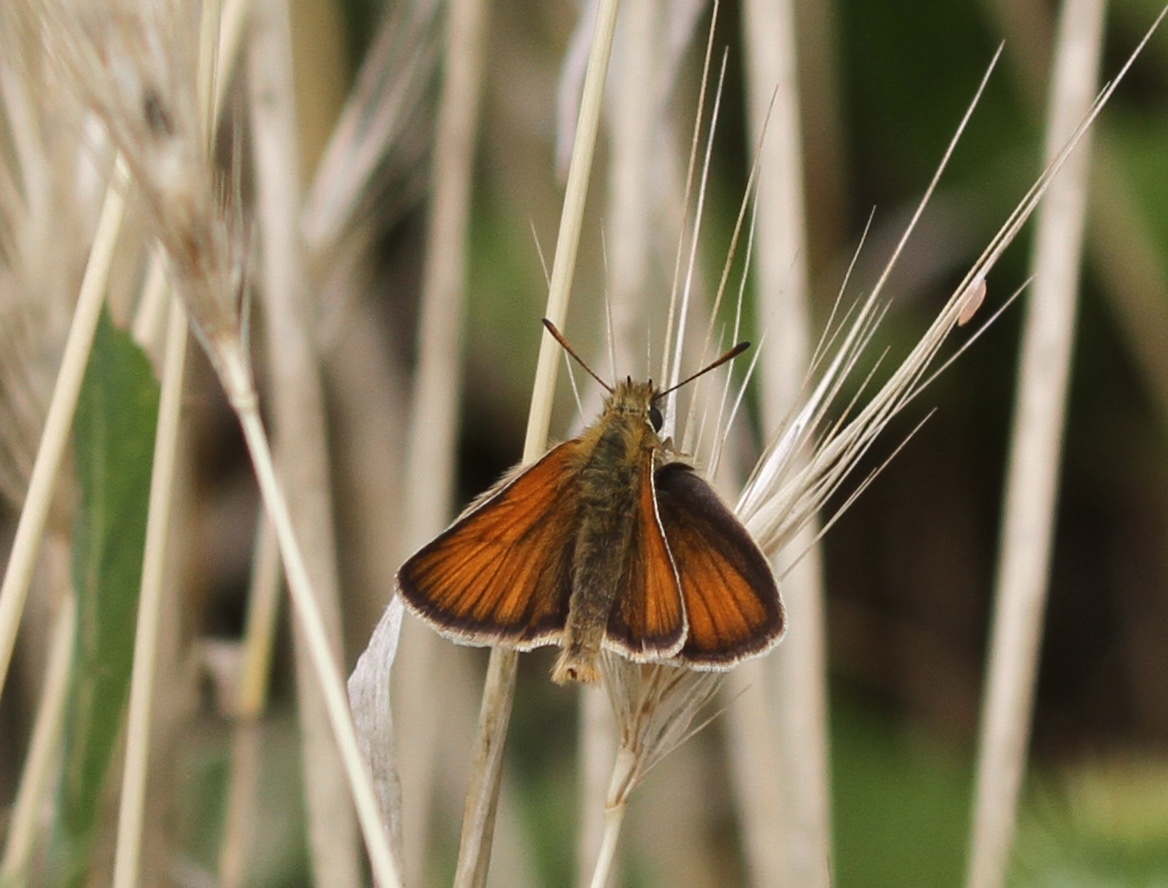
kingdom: Animalia
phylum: Arthropoda
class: Insecta
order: Lepidoptera
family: Hesperiidae
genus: Thymelicus
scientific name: Thymelicus lineola
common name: Essex skipper
